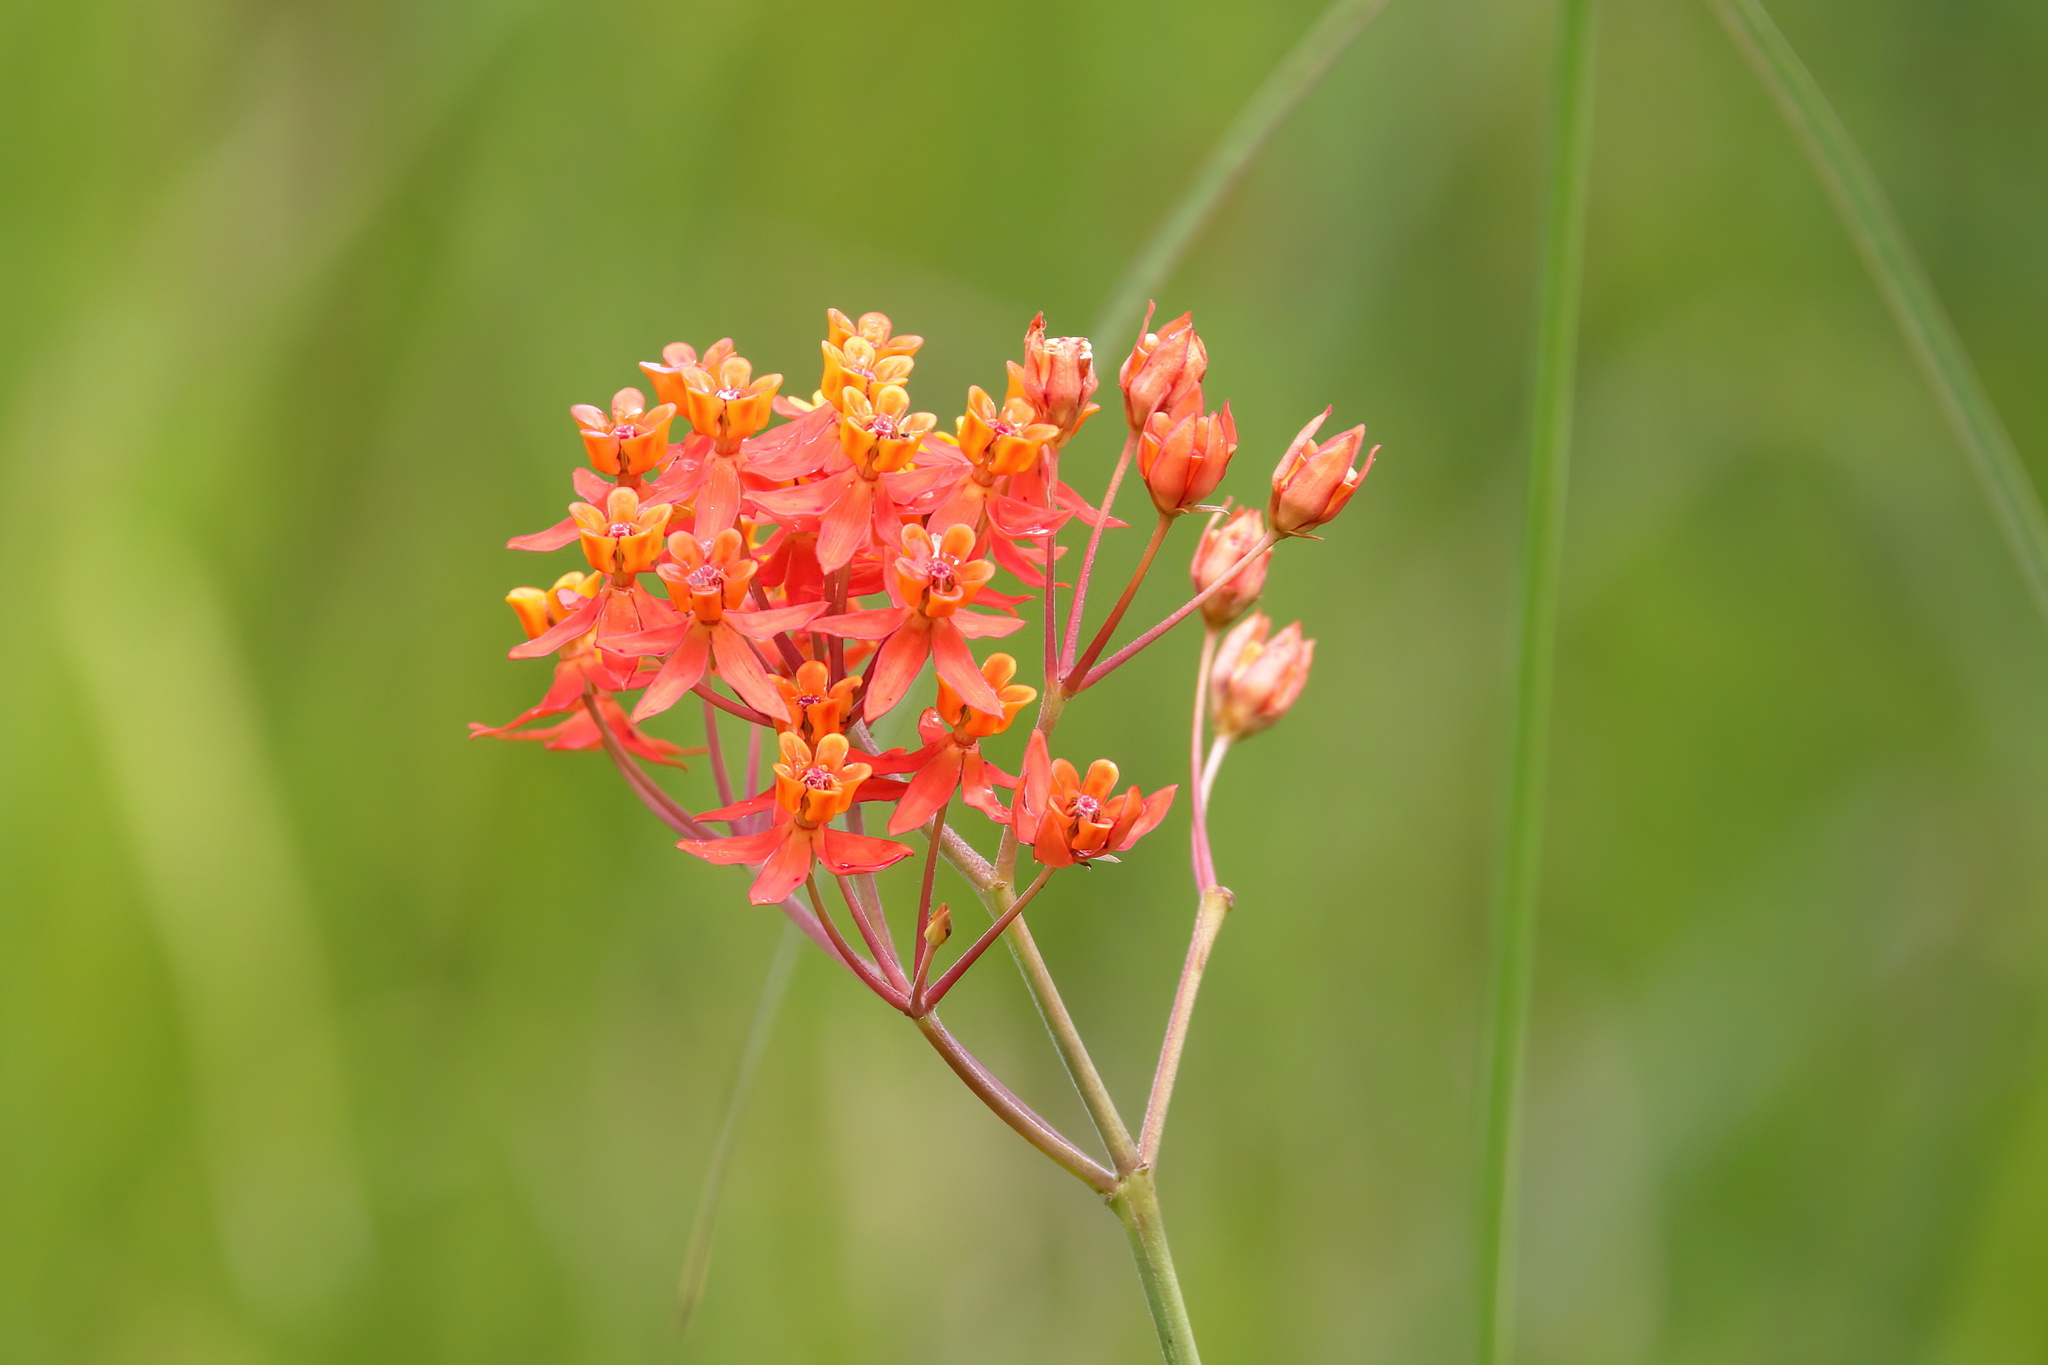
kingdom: Plantae
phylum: Tracheophyta
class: Magnoliopsida
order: Gentianales
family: Apocynaceae
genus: Asclepias
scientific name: Asclepias lanceolata
